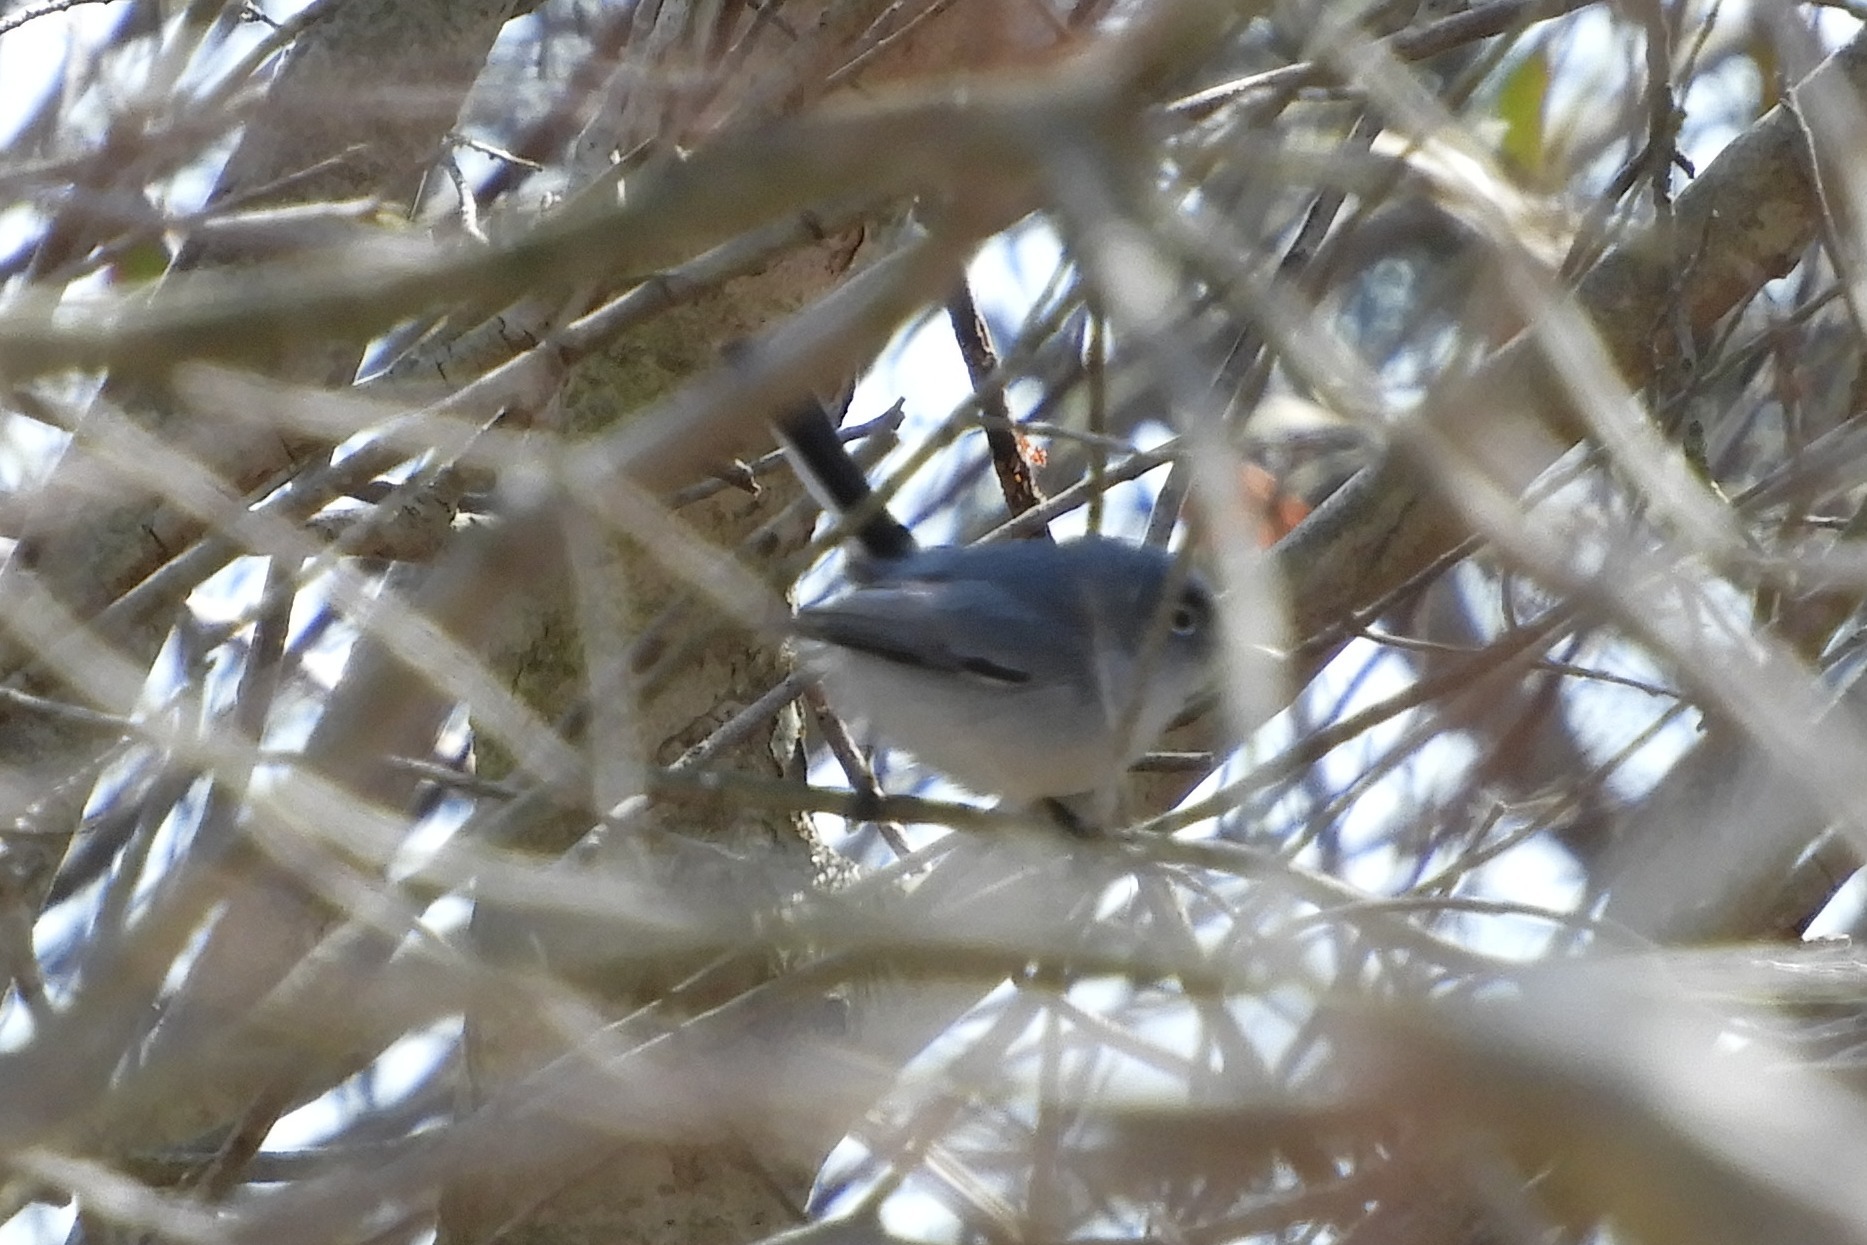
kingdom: Animalia
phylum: Chordata
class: Aves
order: Passeriformes
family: Polioptilidae
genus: Polioptila
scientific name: Polioptila caerulea
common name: Blue-gray gnatcatcher
